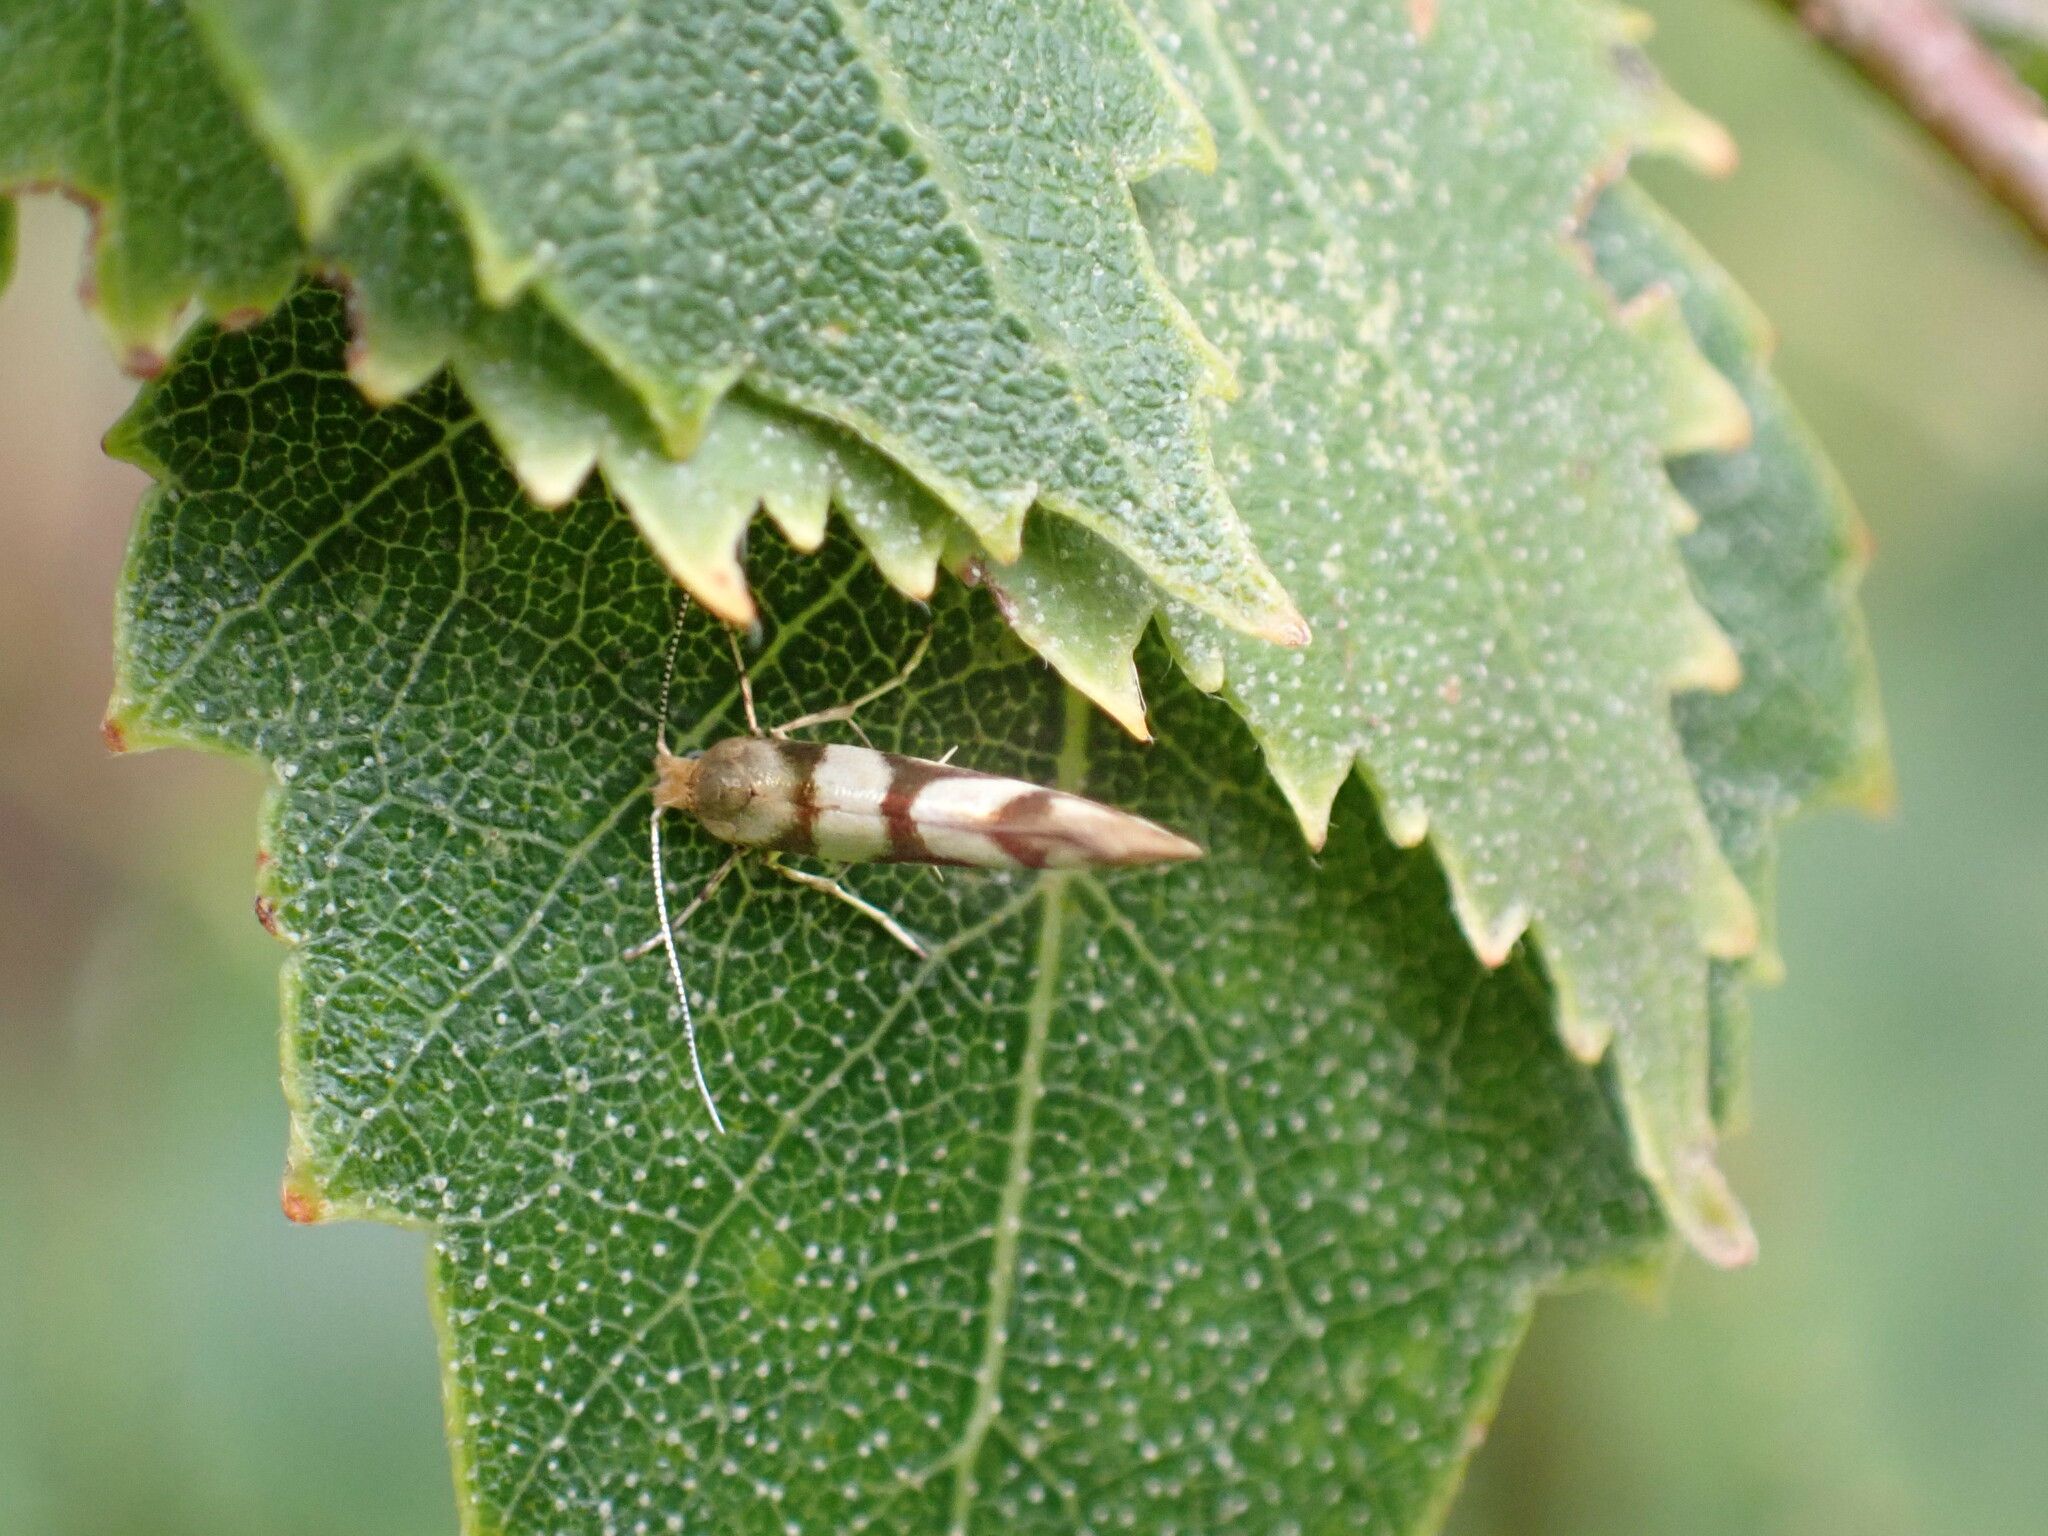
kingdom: Animalia
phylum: Arthropoda
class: Insecta
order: Lepidoptera
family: Argyresthiidae
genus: Argyresthia
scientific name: Argyresthia goedartella
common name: Golden argent
